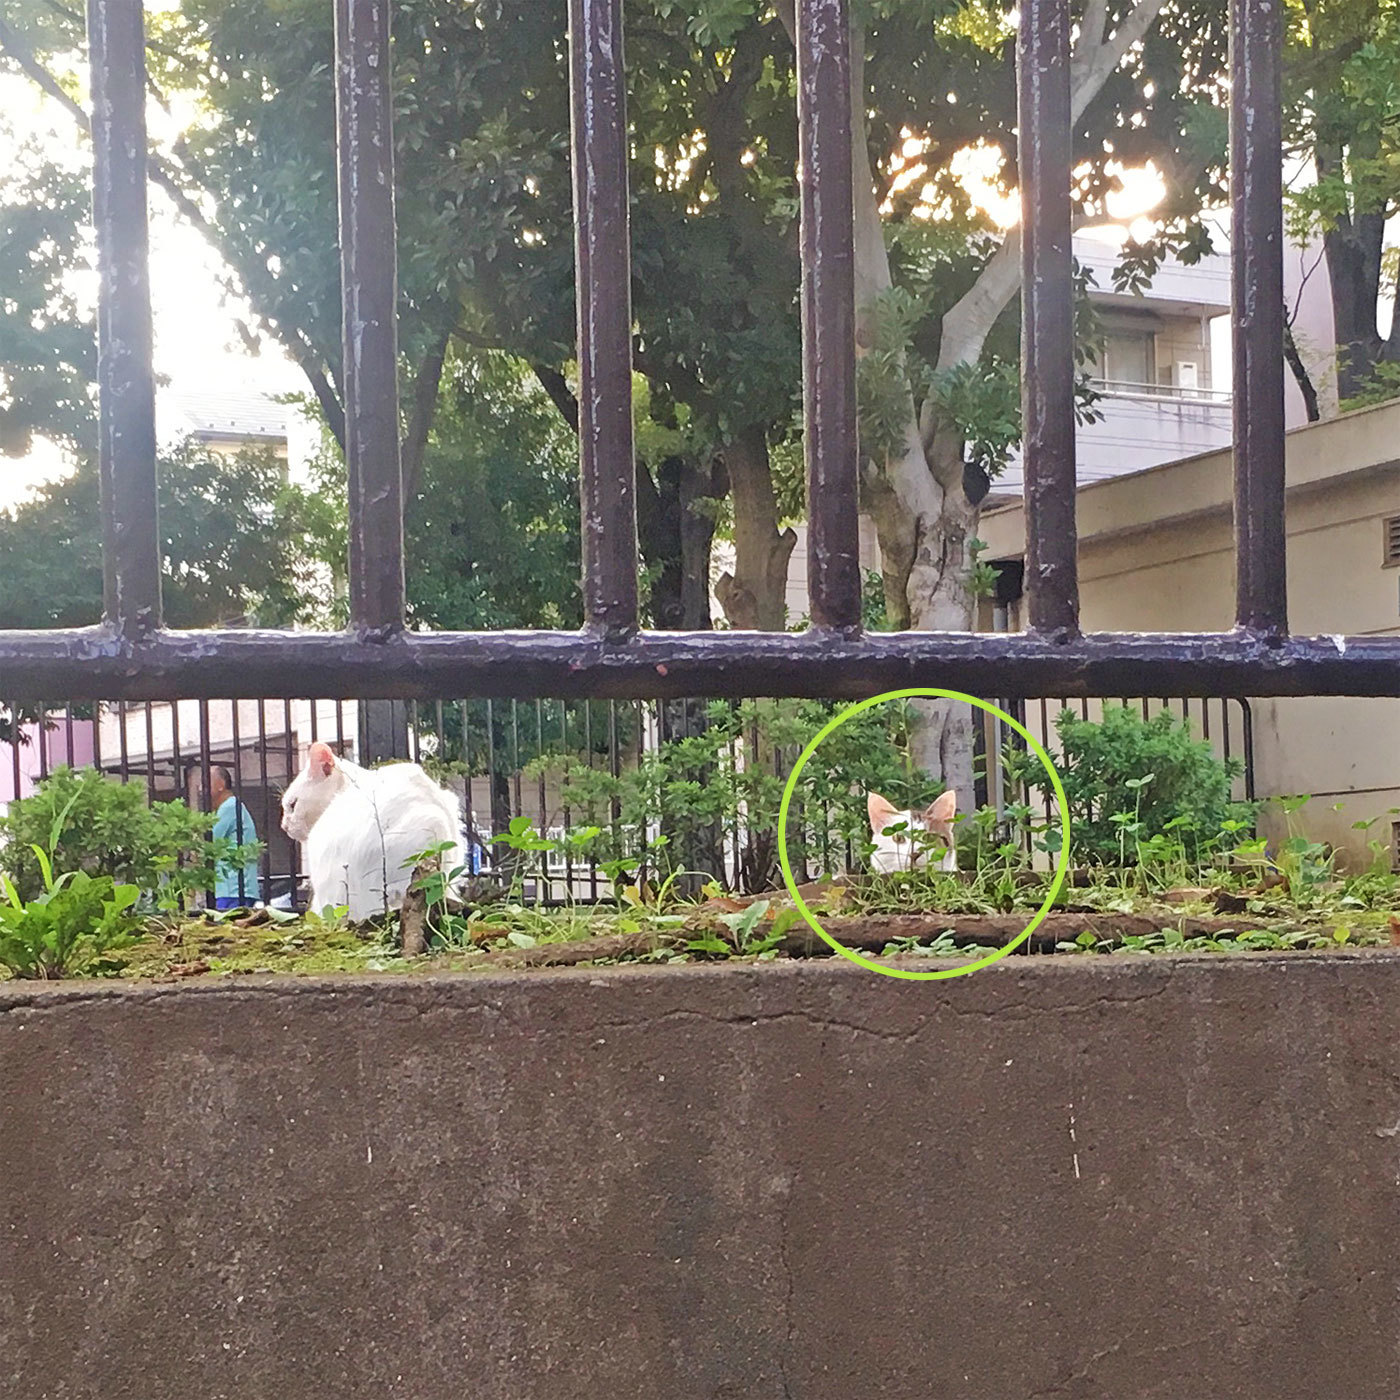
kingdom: Animalia
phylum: Chordata
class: Mammalia
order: Carnivora
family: Felidae
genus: Felis
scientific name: Felis catus
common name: Domestic cat
